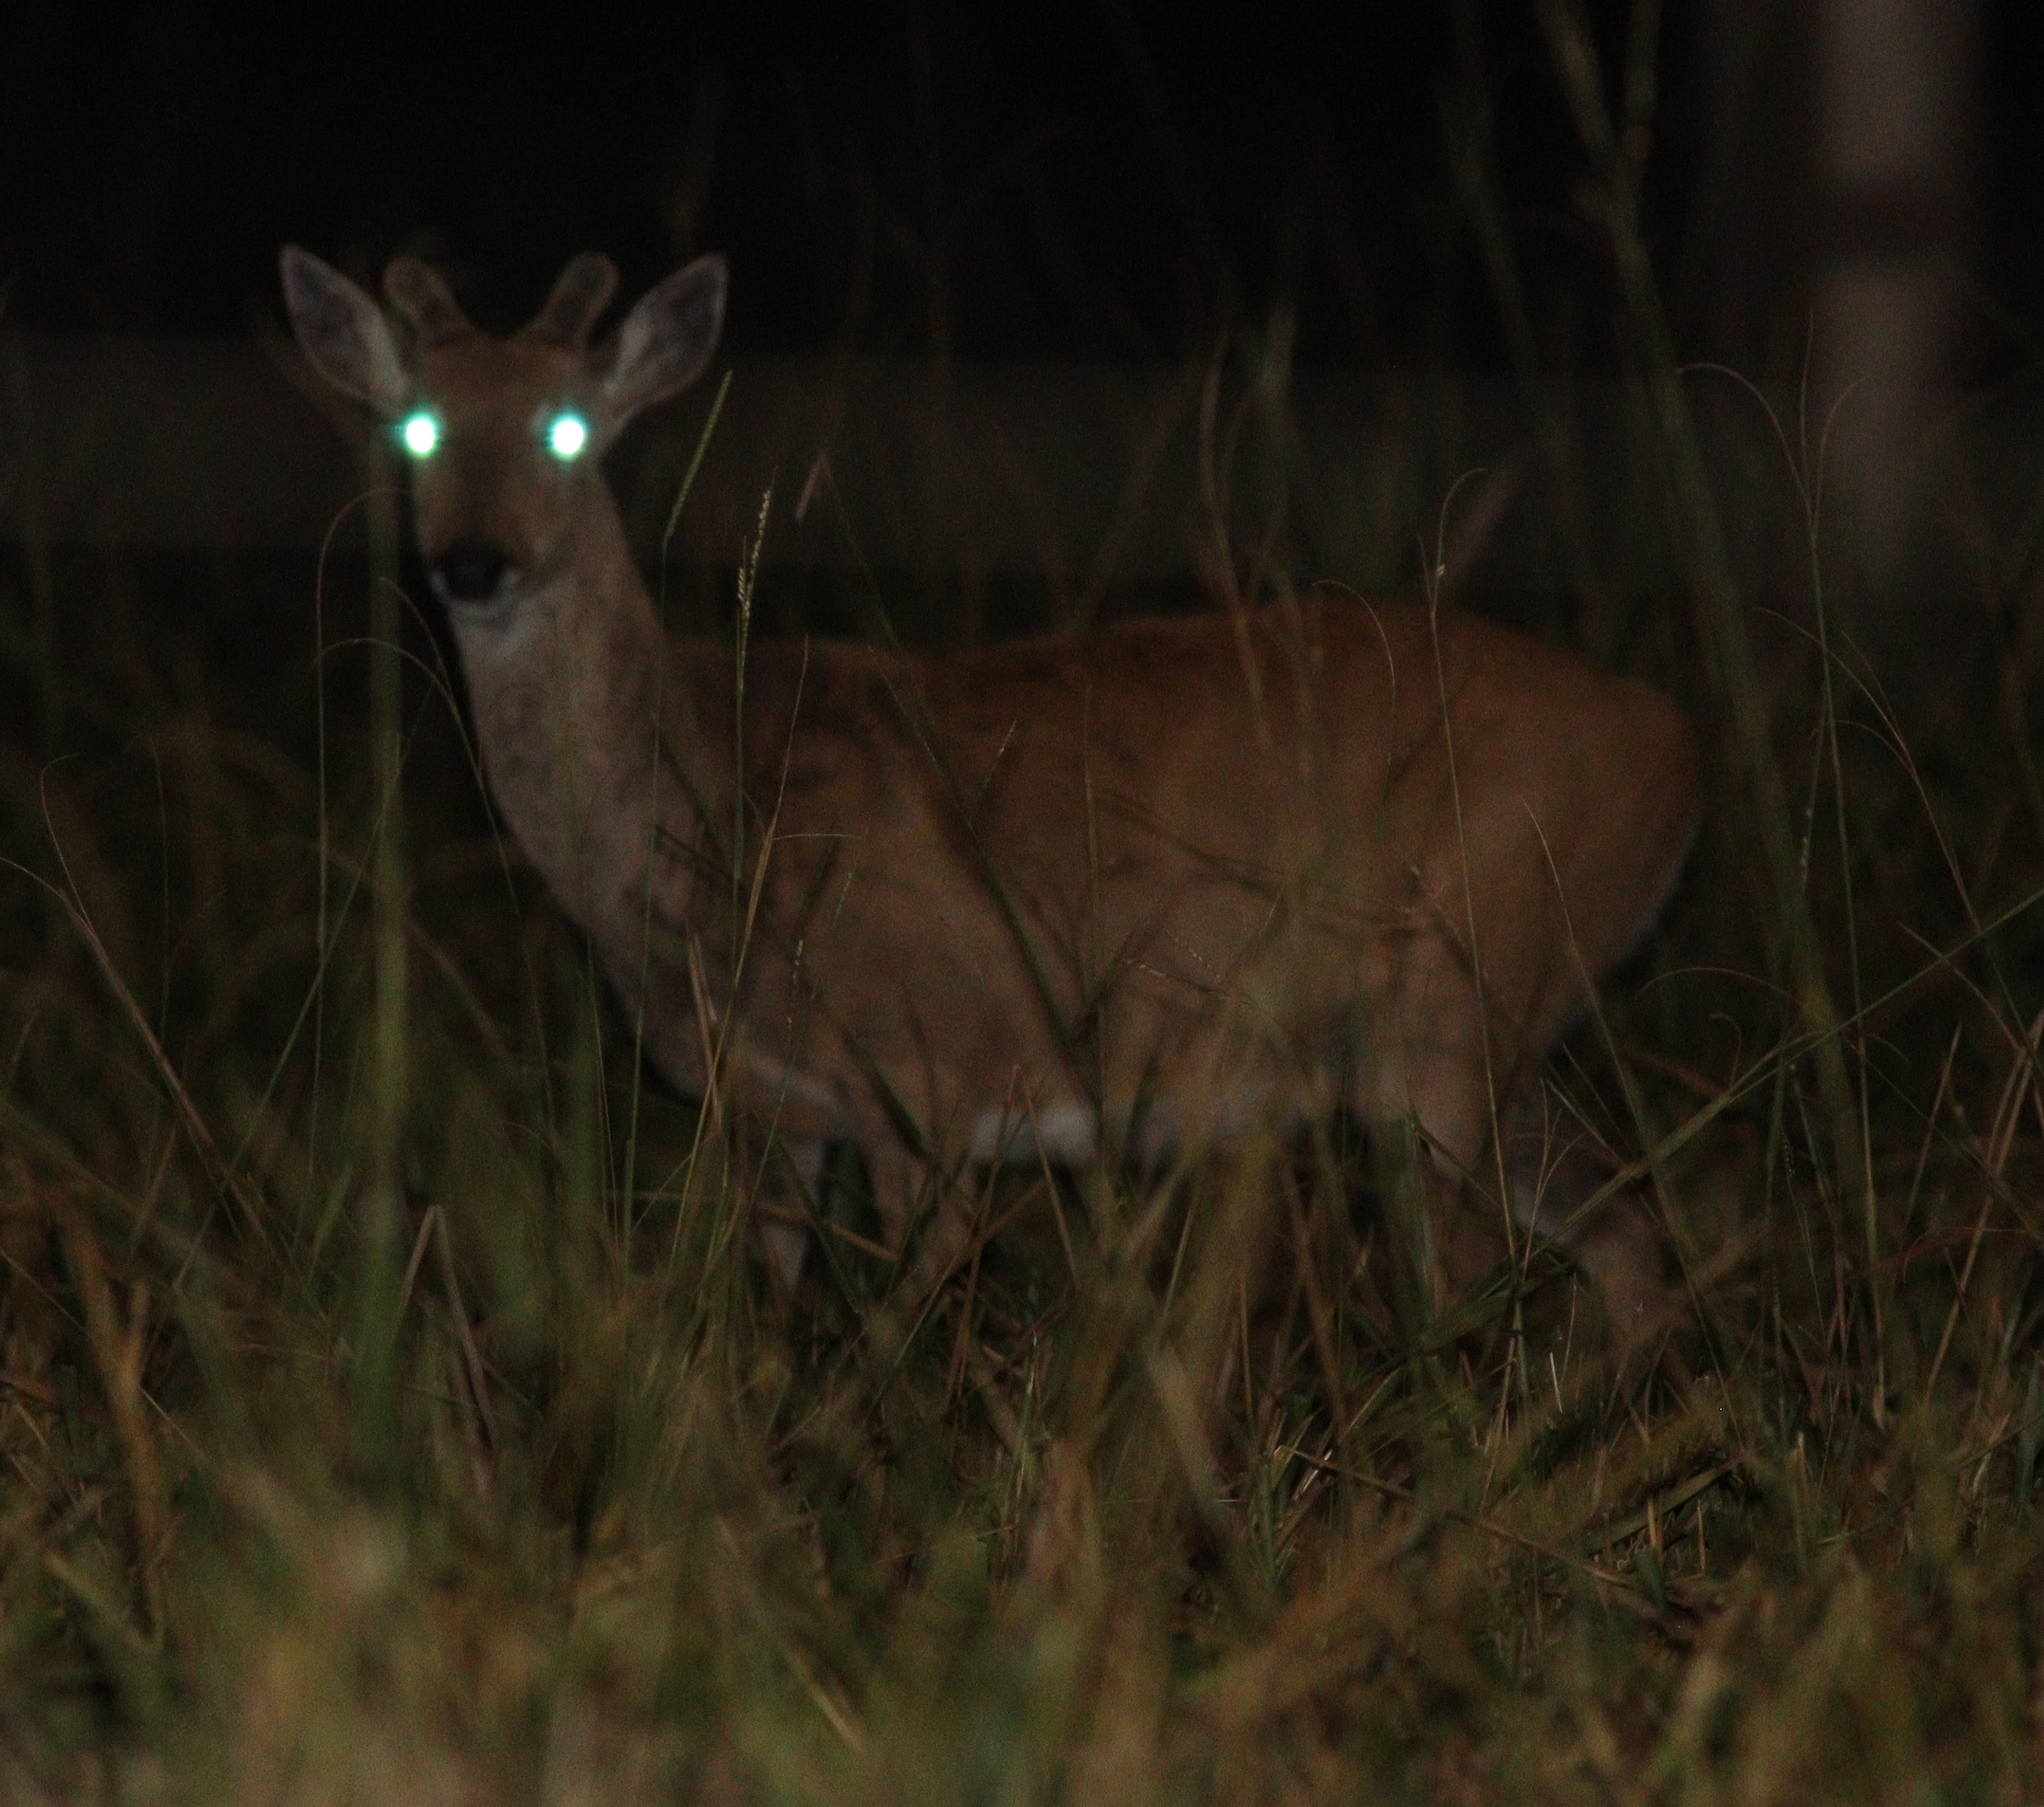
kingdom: Animalia
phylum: Chordata
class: Mammalia
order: Artiodactyla
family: Cervidae
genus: Ozotoceros
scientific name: Ozotoceros bezoarticus
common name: Pampas deer
